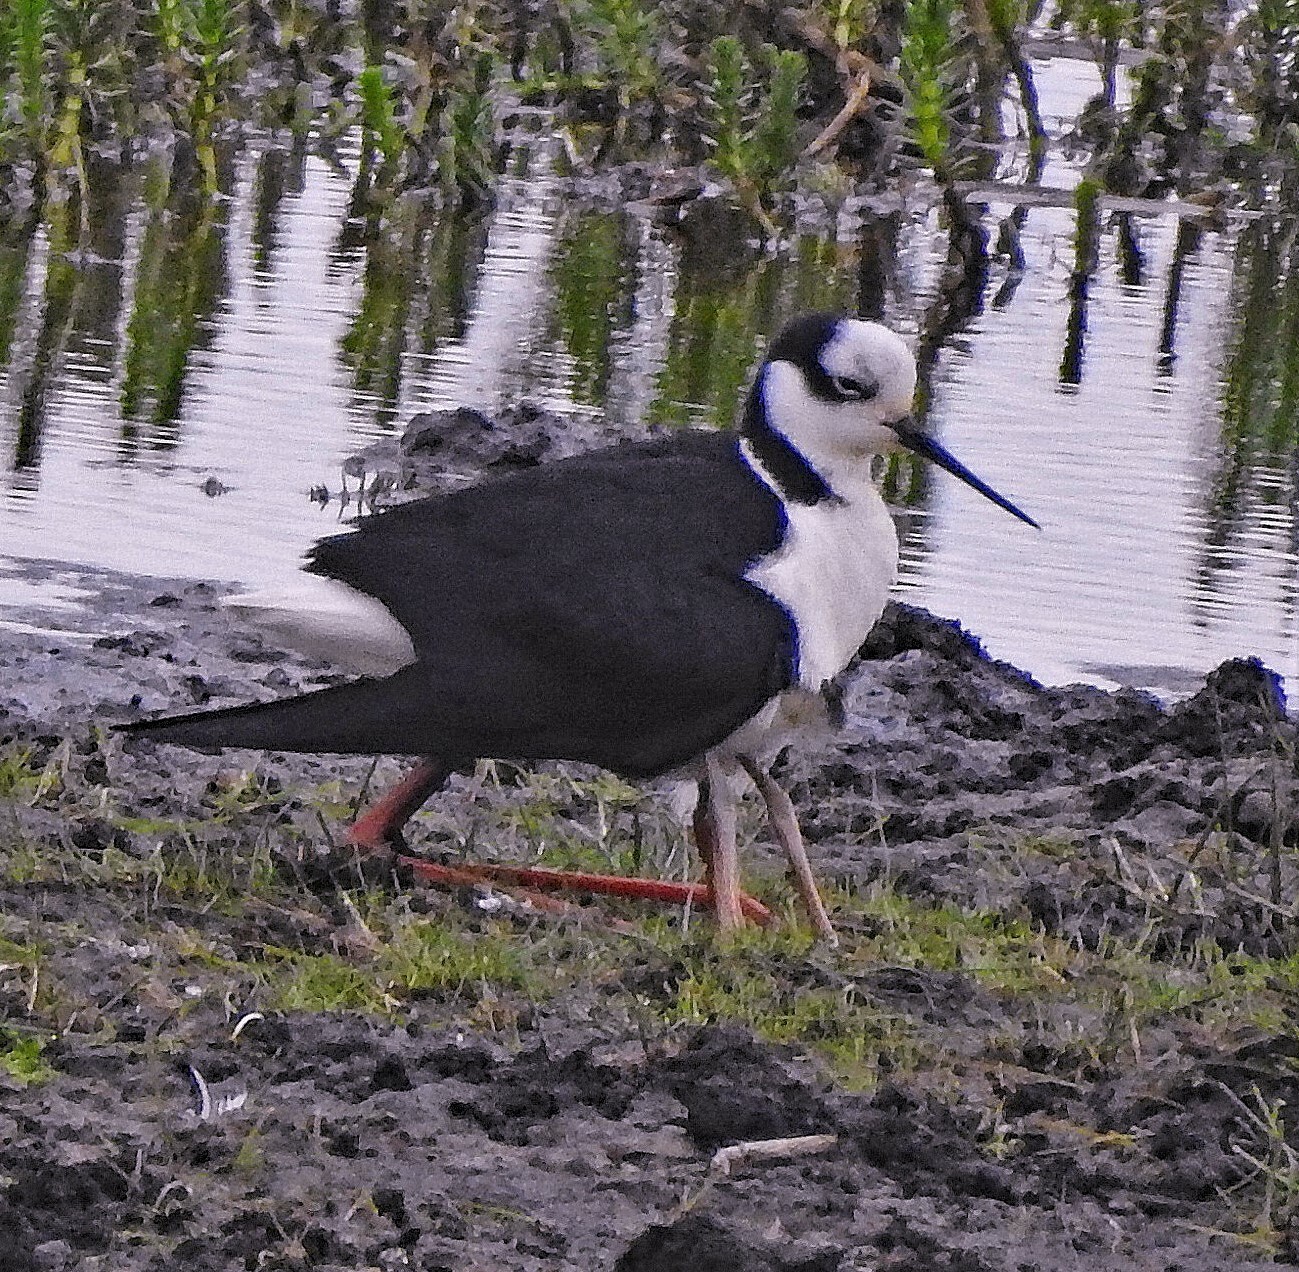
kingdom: Animalia
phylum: Chordata
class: Aves
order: Charadriiformes
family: Recurvirostridae
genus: Himantopus
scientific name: Himantopus mexicanus
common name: Black-necked stilt
